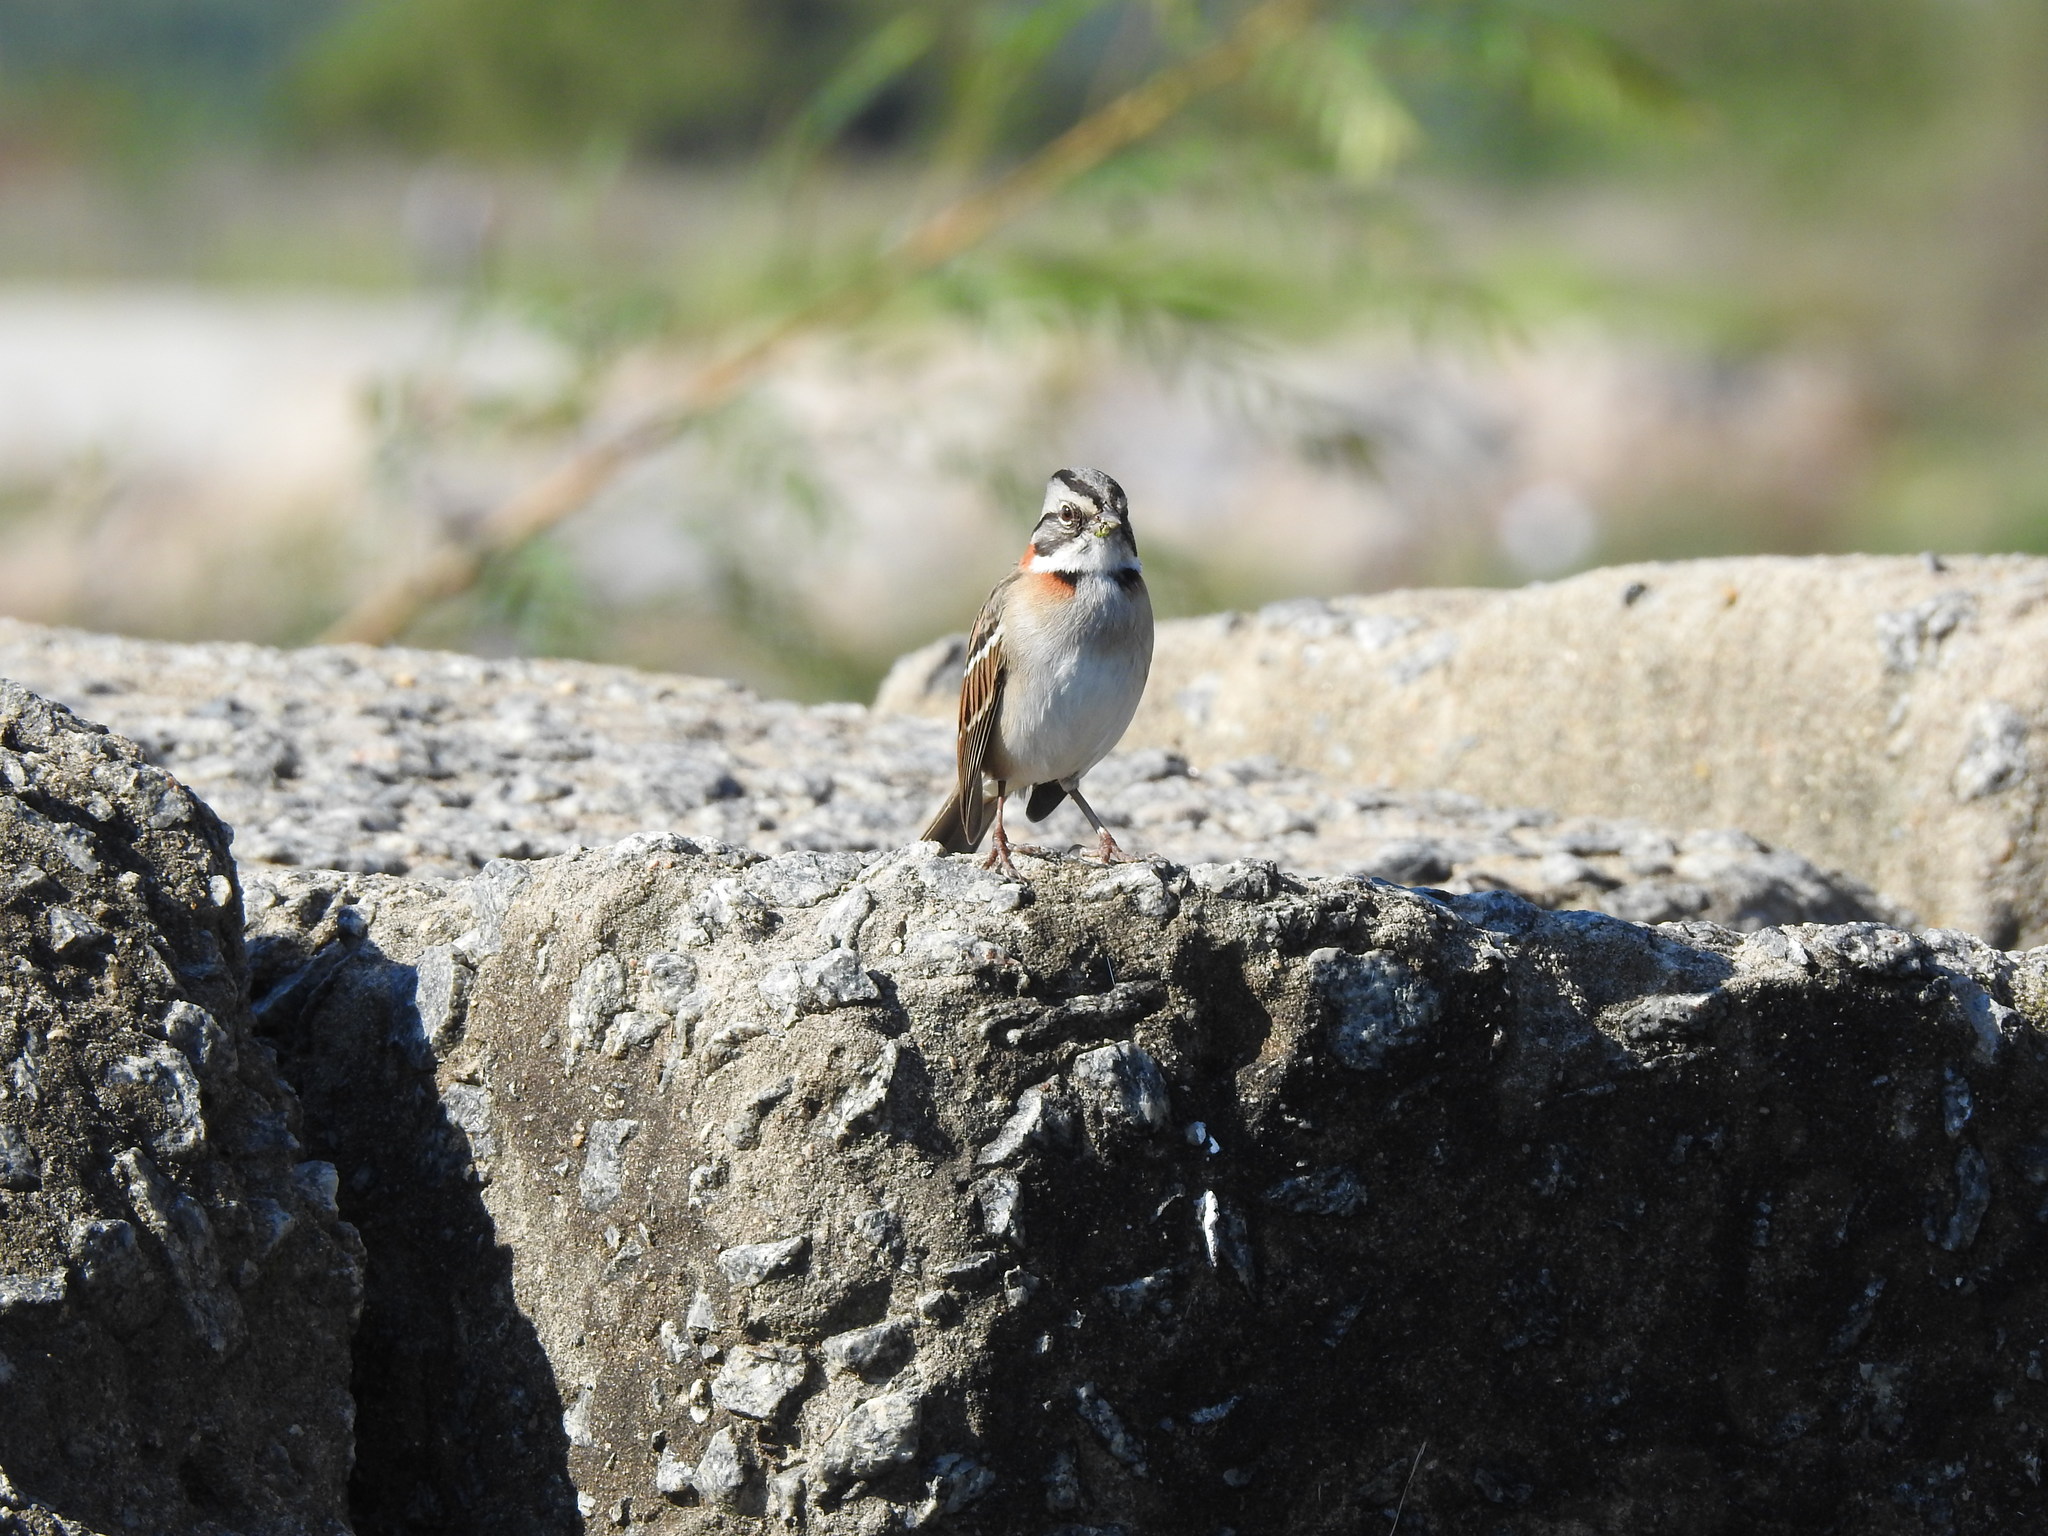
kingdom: Animalia
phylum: Chordata
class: Aves
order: Passeriformes
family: Passerellidae
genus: Zonotrichia
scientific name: Zonotrichia capensis
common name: Rufous-collared sparrow
